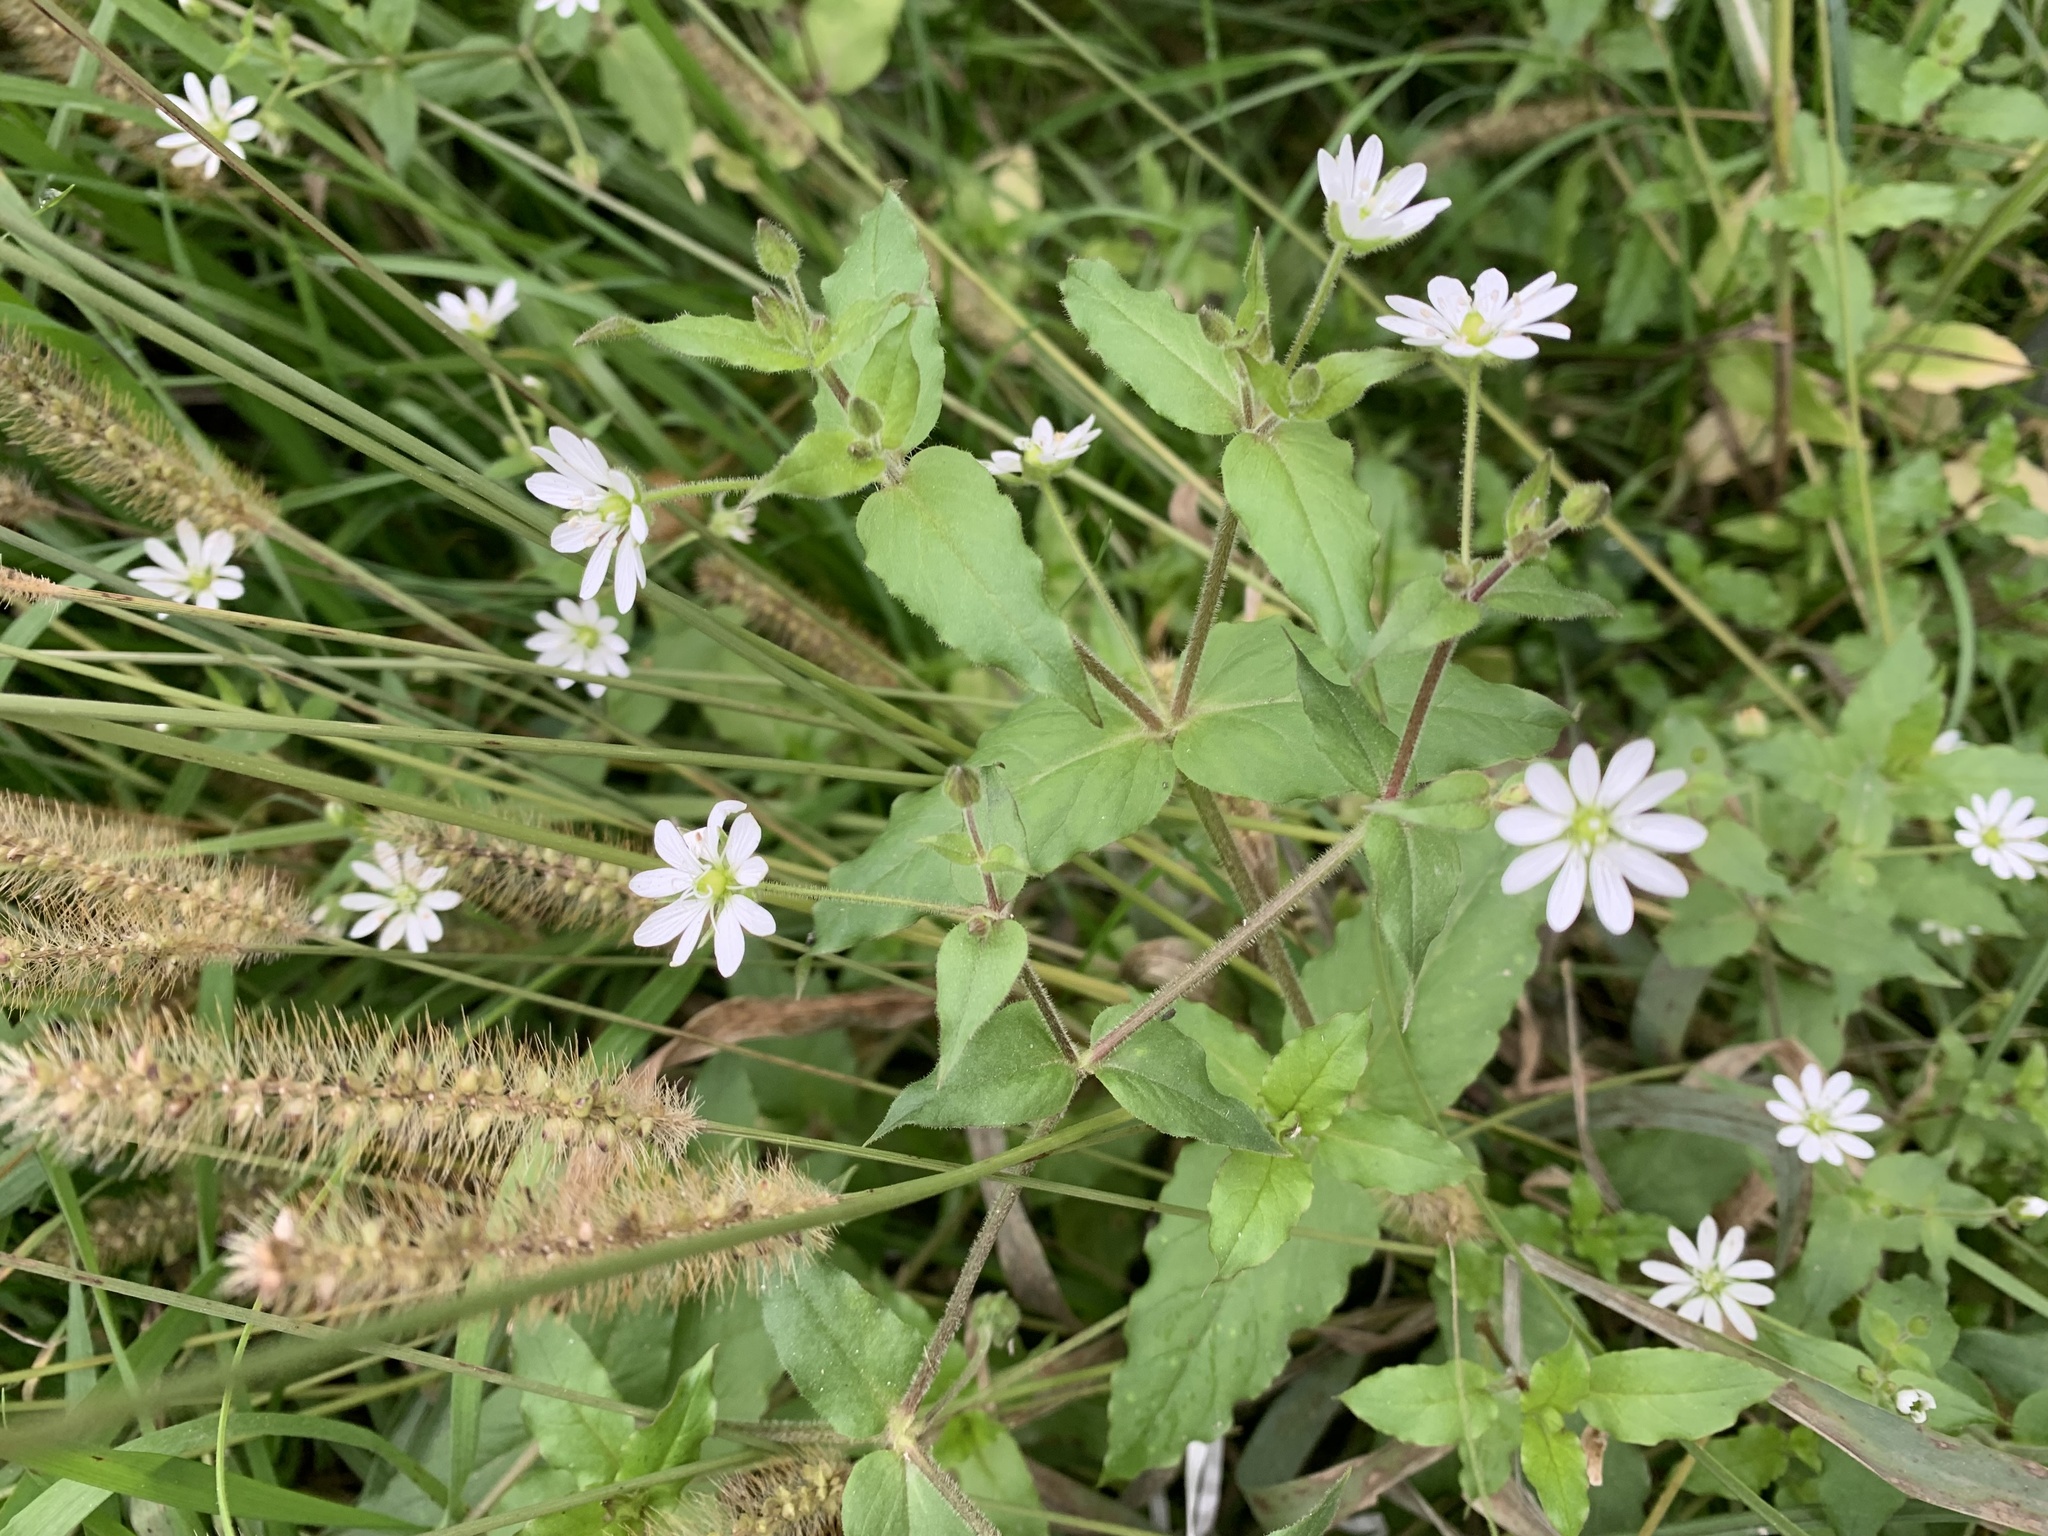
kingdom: Plantae
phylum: Tracheophyta
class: Magnoliopsida
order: Caryophyllales
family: Caryophyllaceae
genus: Stellaria
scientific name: Stellaria aquatica
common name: Water chickweed
